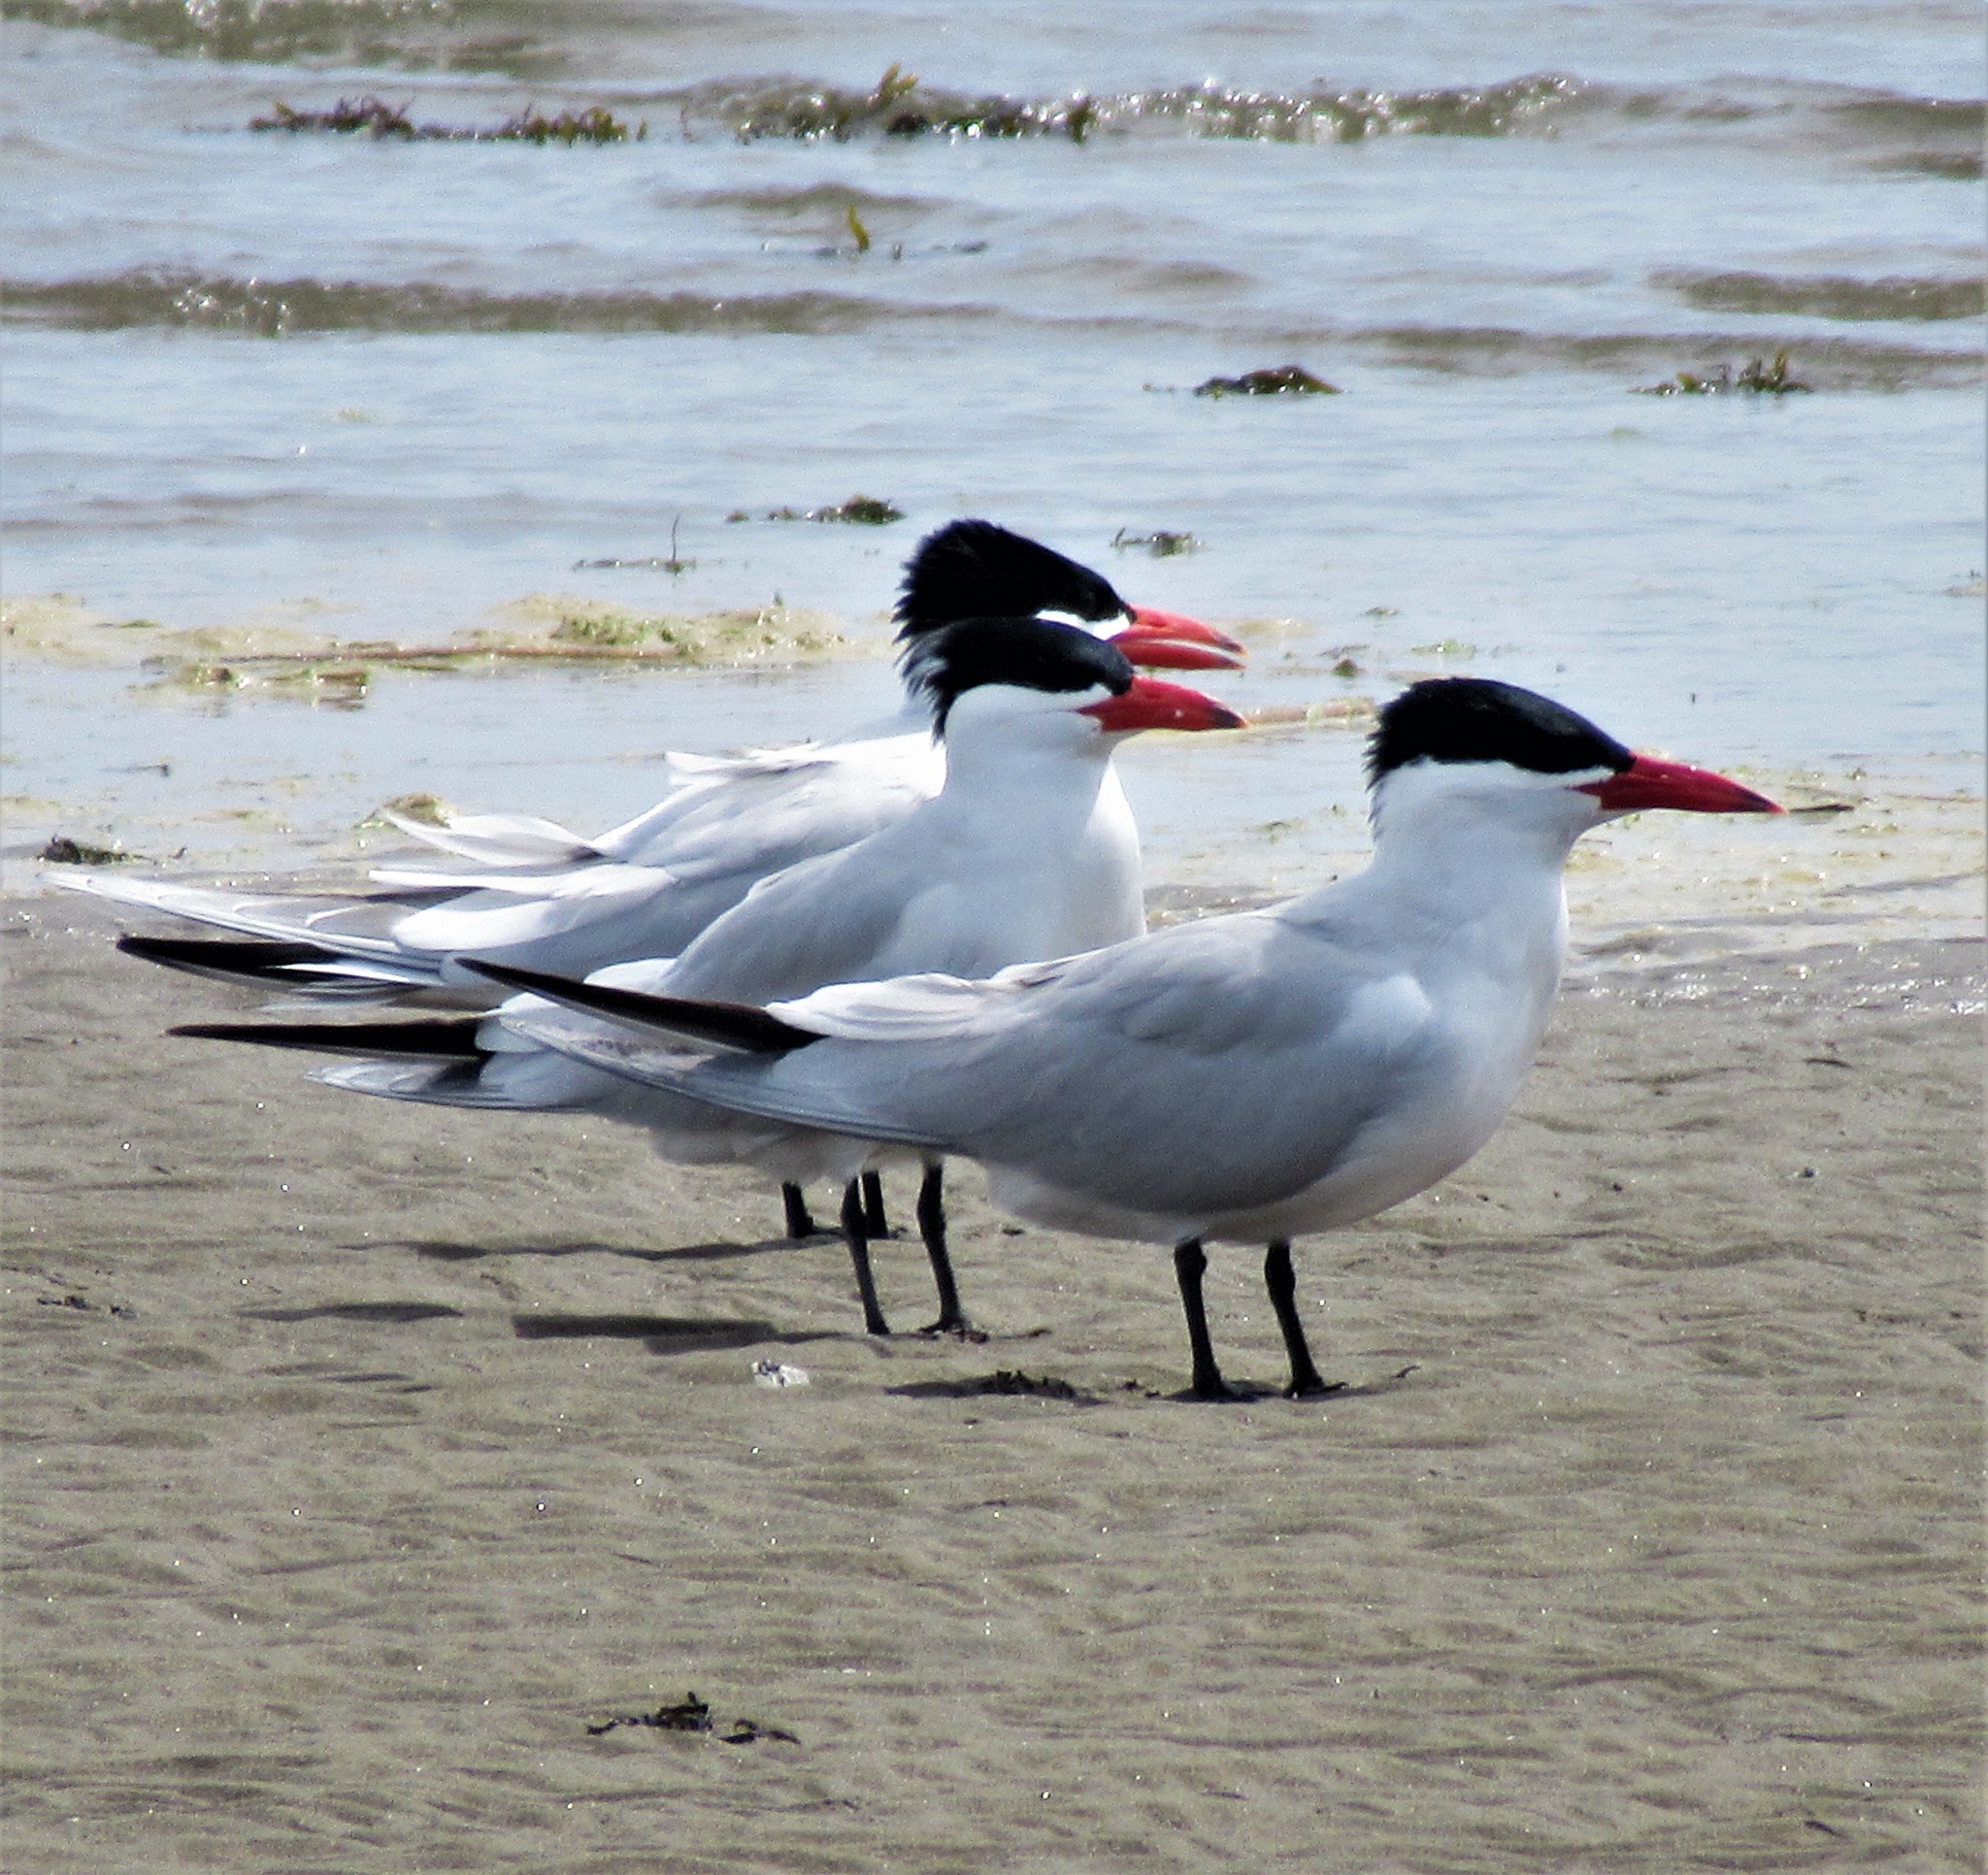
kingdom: Animalia
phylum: Chordata
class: Aves
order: Charadriiformes
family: Laridae
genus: Hydroprogne
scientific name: Hydroprogne caspia
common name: Caspian tern
